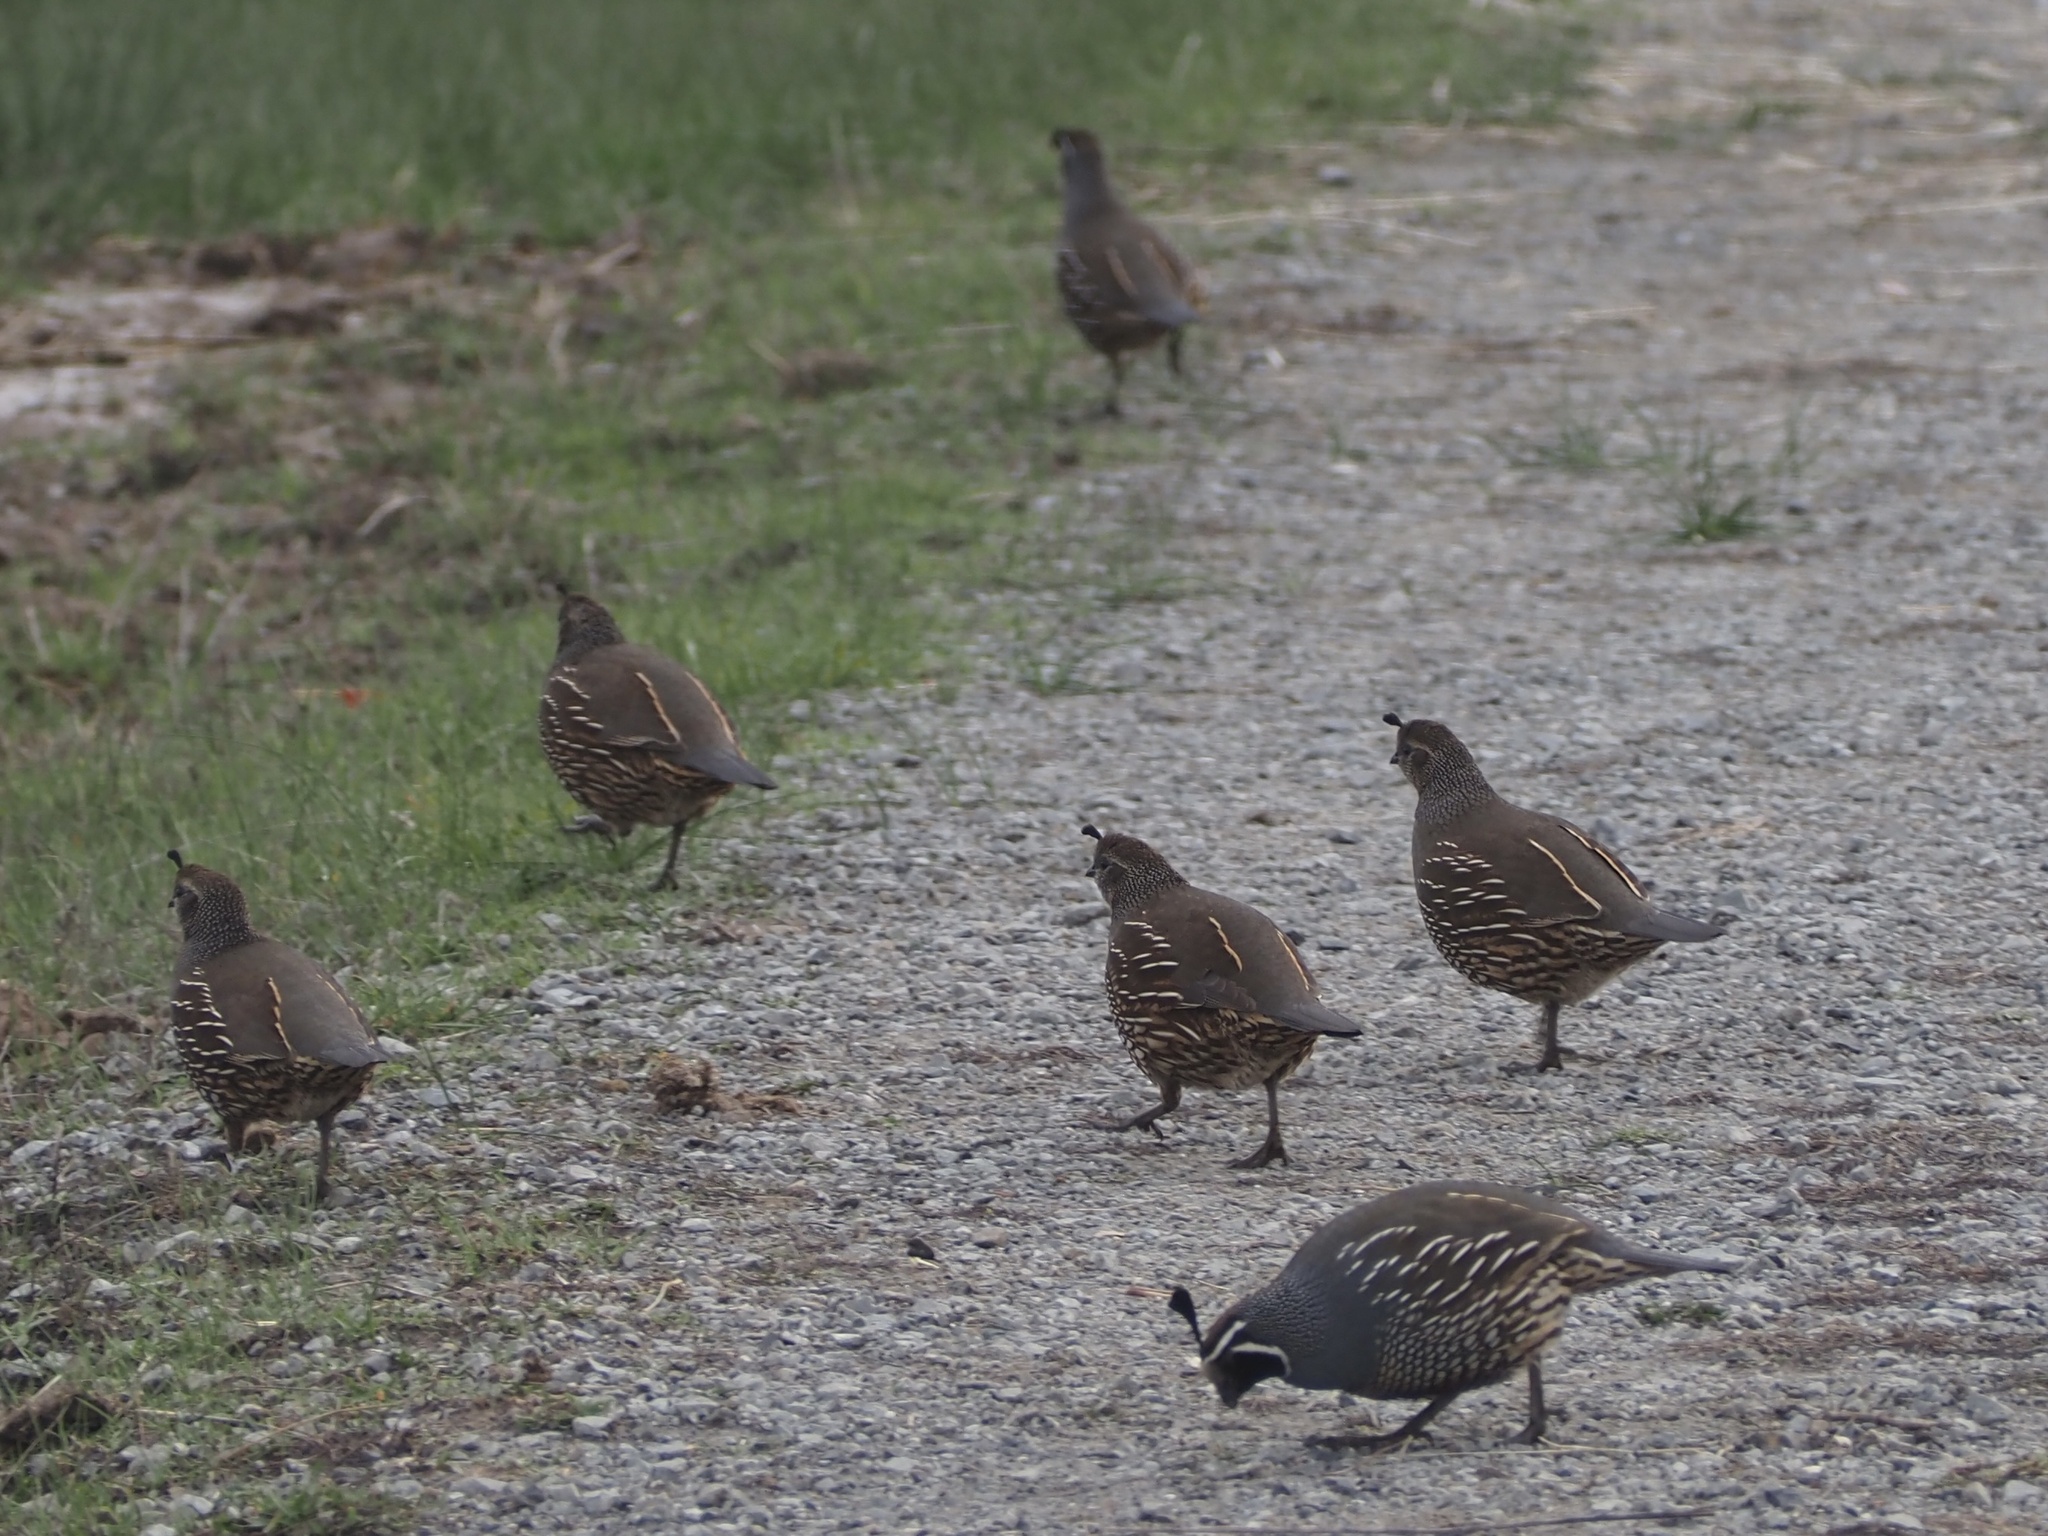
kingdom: Animalia
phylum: Chordata
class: Aves
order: Galliformes
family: Odontophoridae
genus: Callipepla
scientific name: Callipepla californica
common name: California quail
